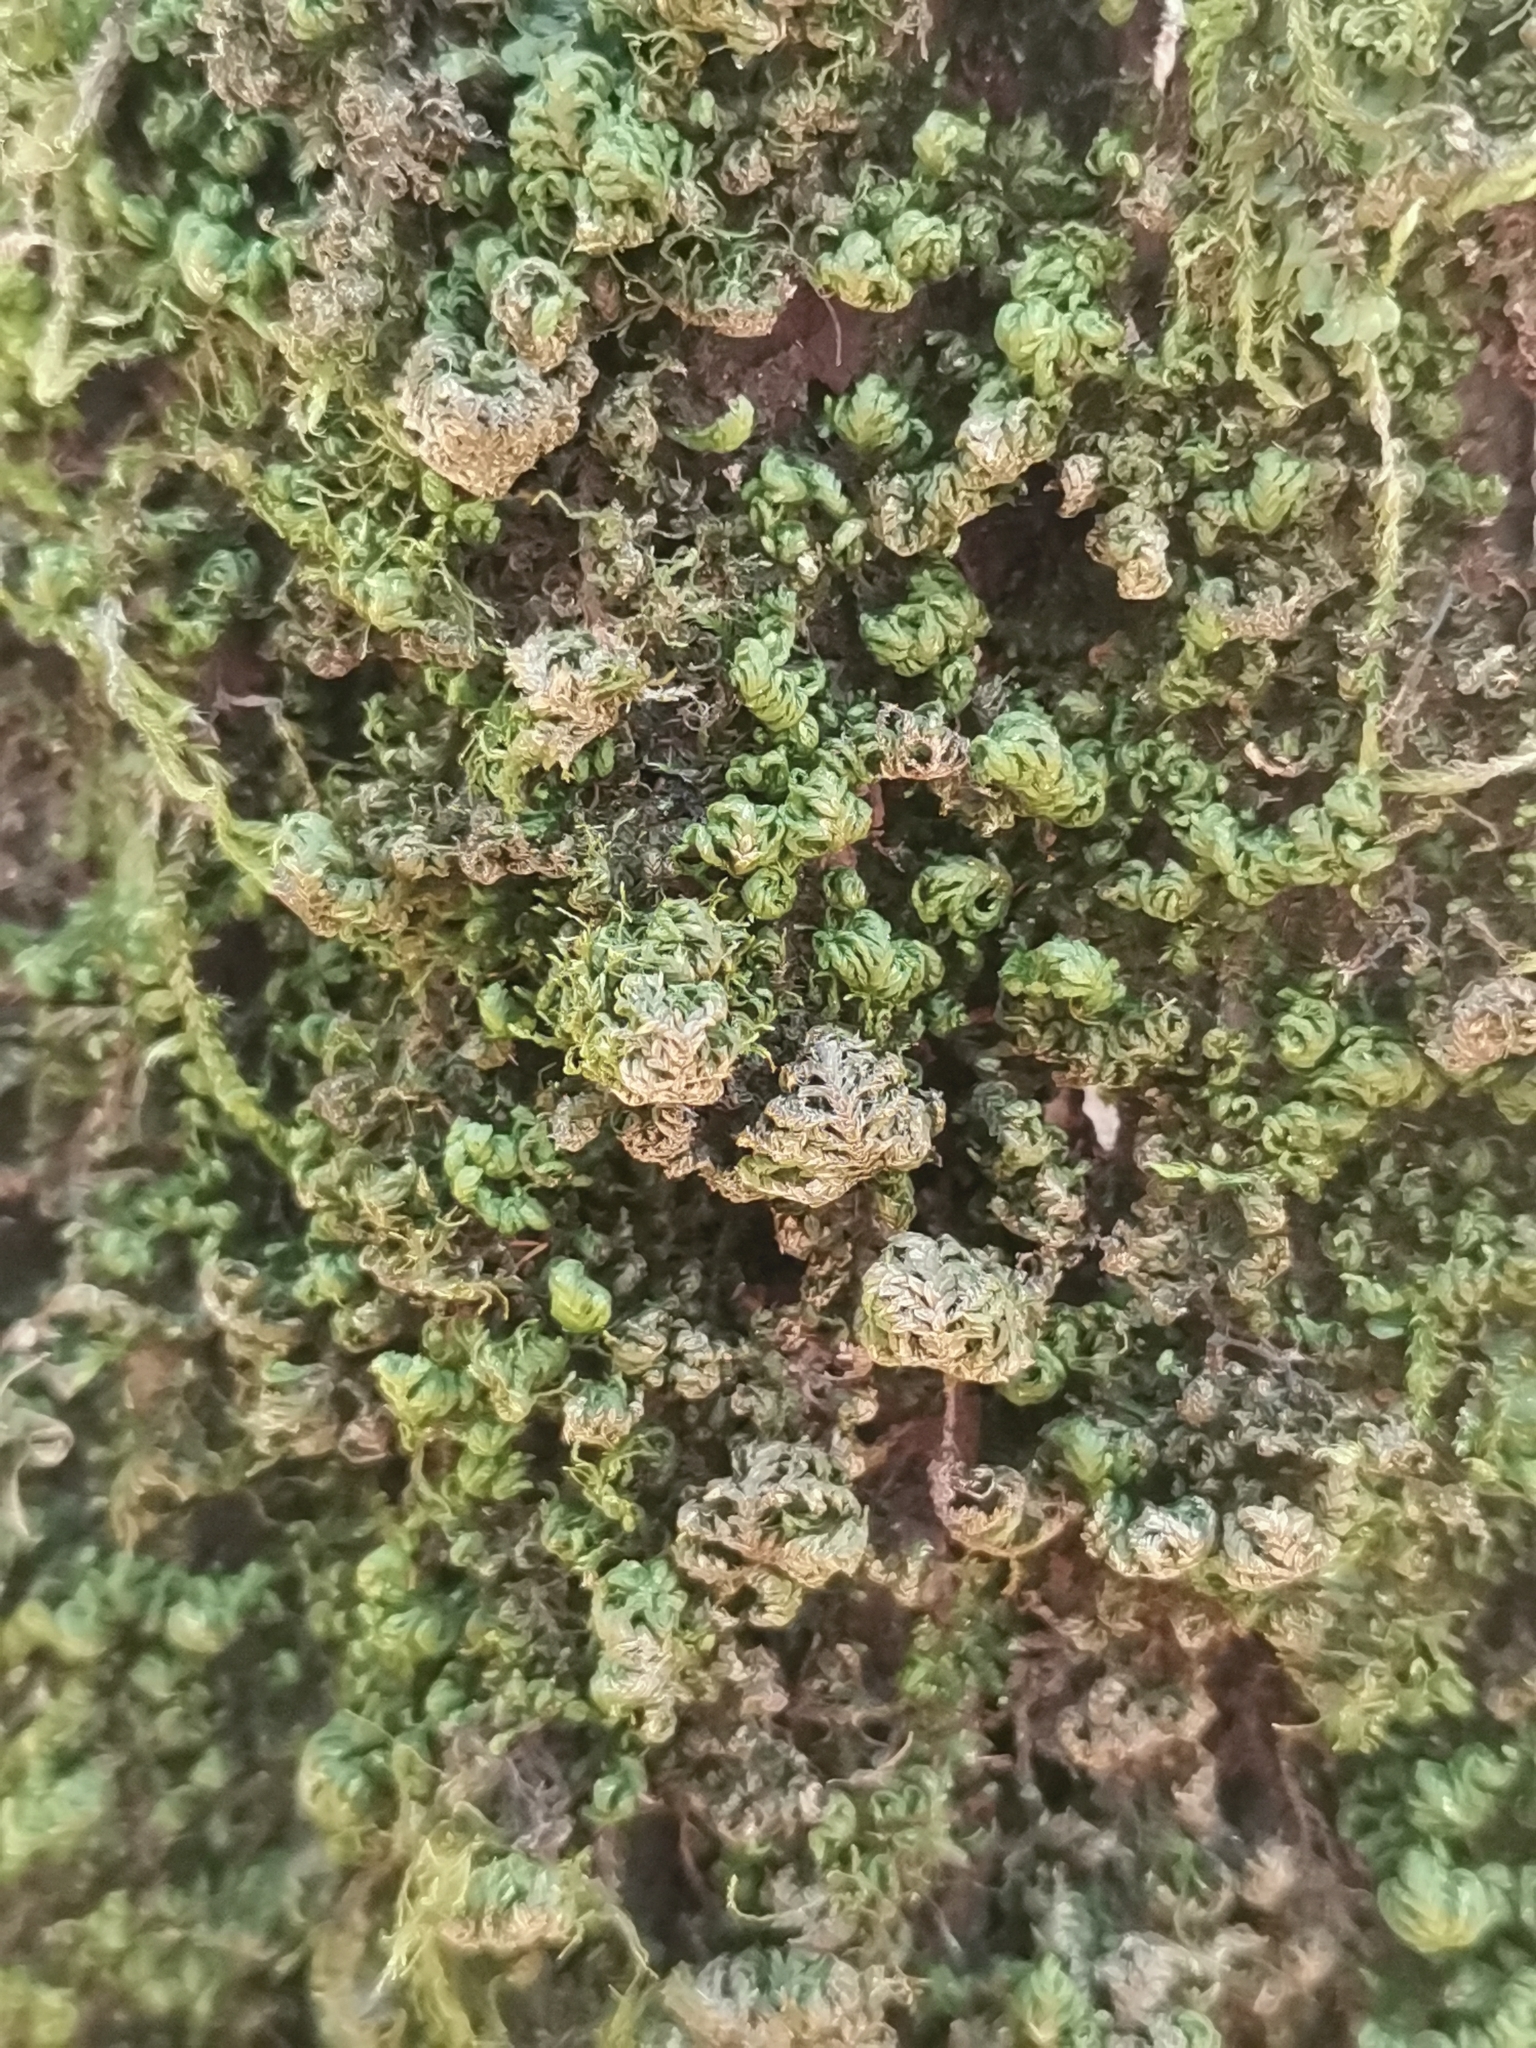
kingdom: Plantae
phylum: Bryophyta
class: Bryopsida
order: Hypnales
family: Neckeraceae
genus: Leptodon
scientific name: Leptodon smithii
